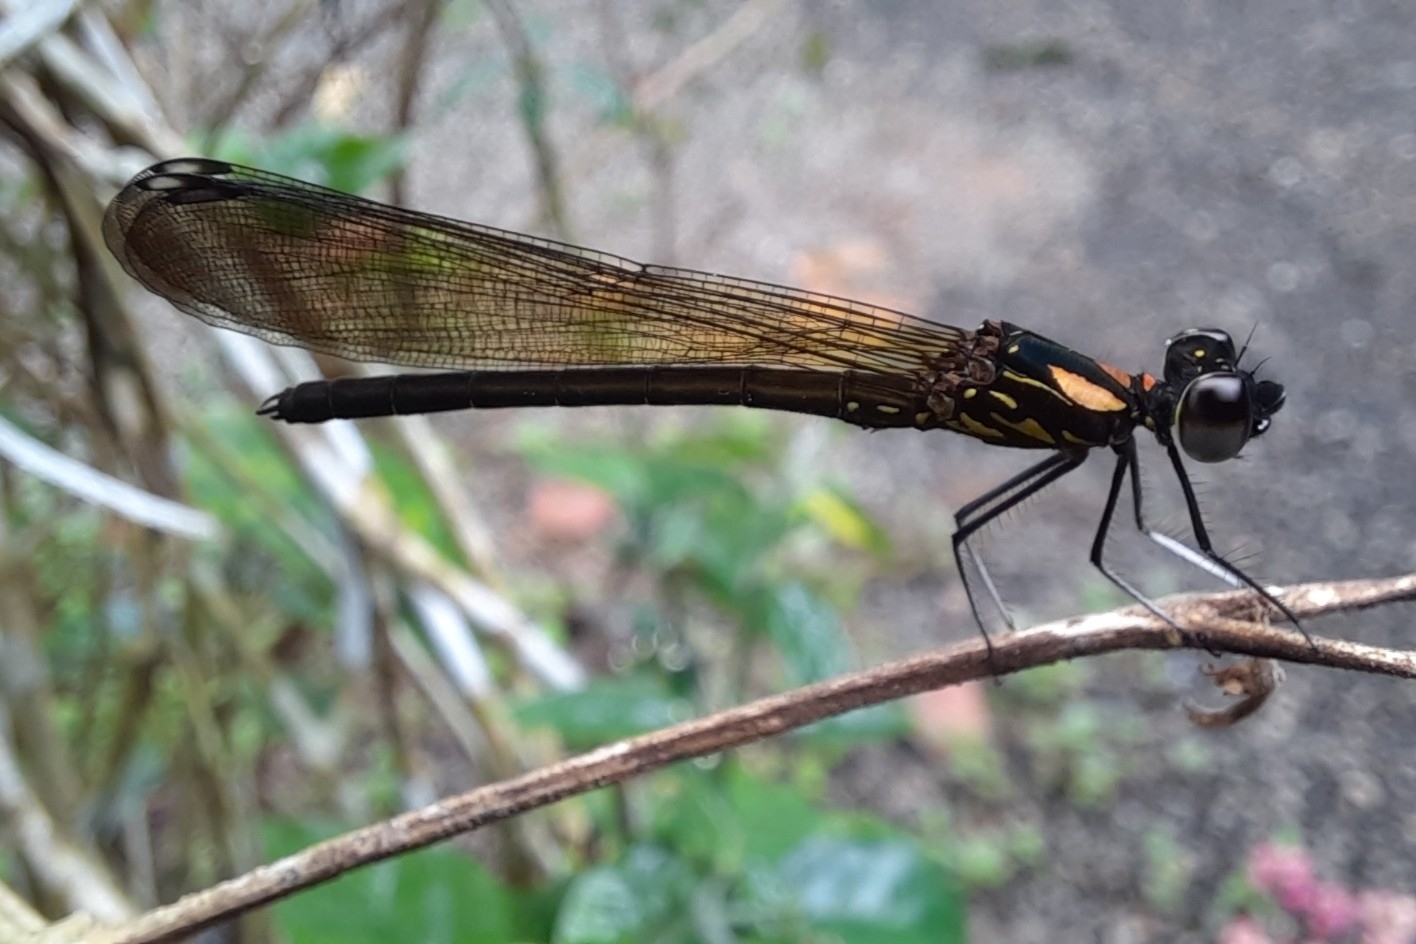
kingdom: Animalia
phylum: Arthropoda
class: Insecta
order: Odonata
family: Chlorocyphidae
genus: Heliocypha
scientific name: Heliocypha bisignata
